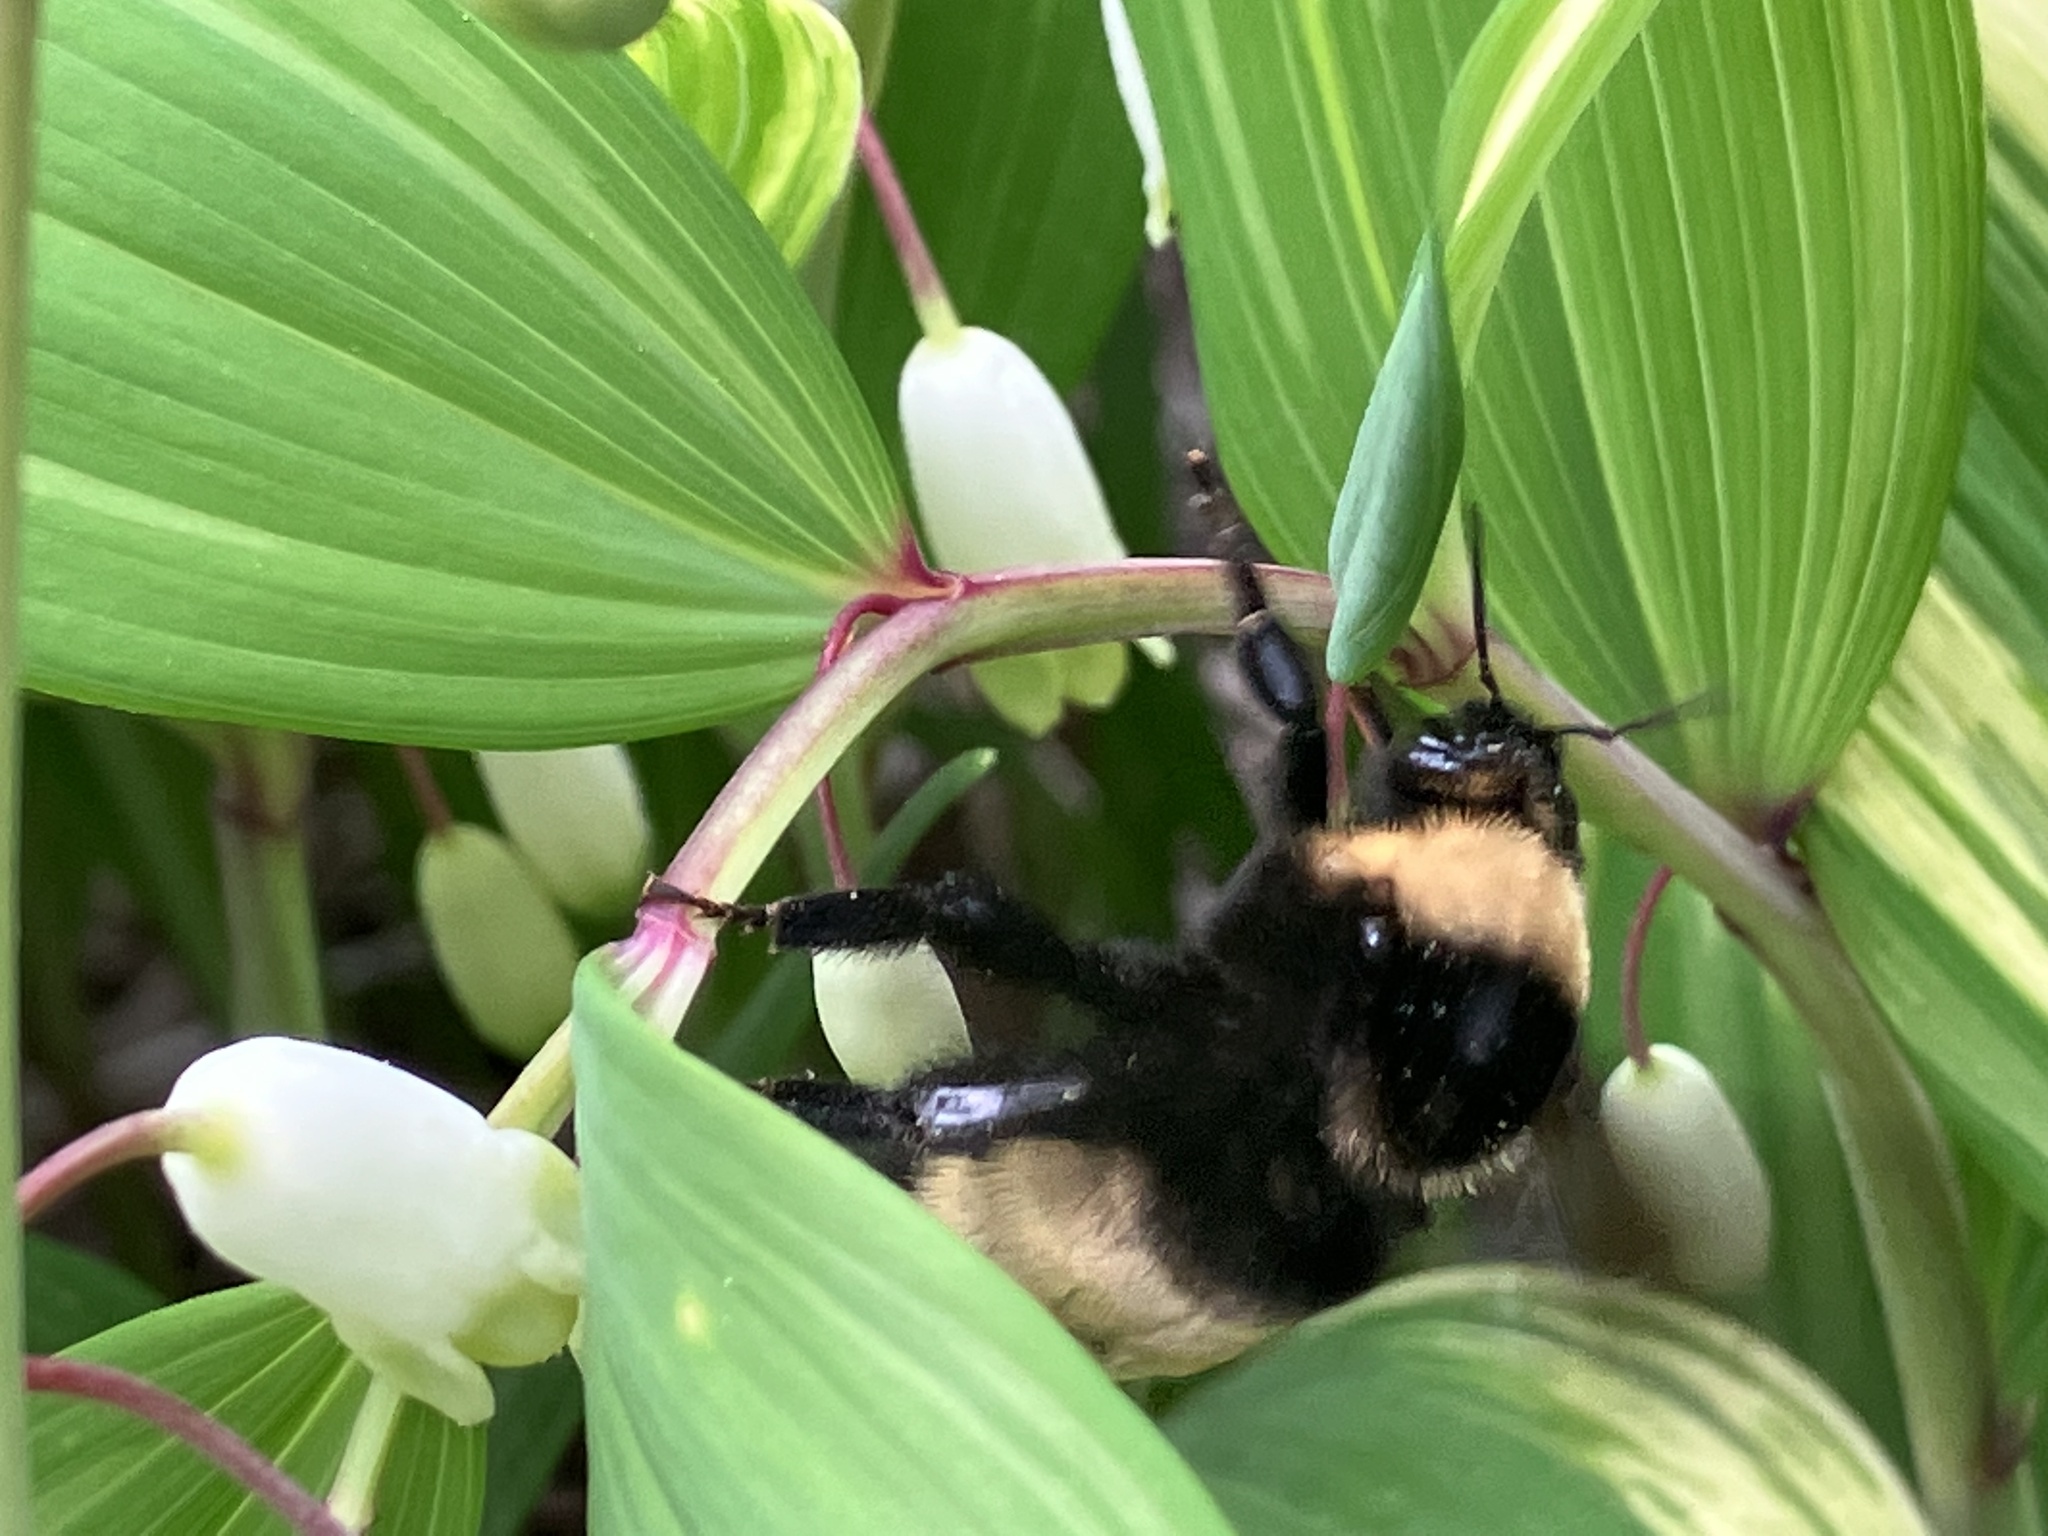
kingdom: Animalia
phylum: Arthropoda
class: Insecta
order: Hymenoptera
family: Apidae
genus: Bombus
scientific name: Bombus auricomus
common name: Black and gold bumble bee
